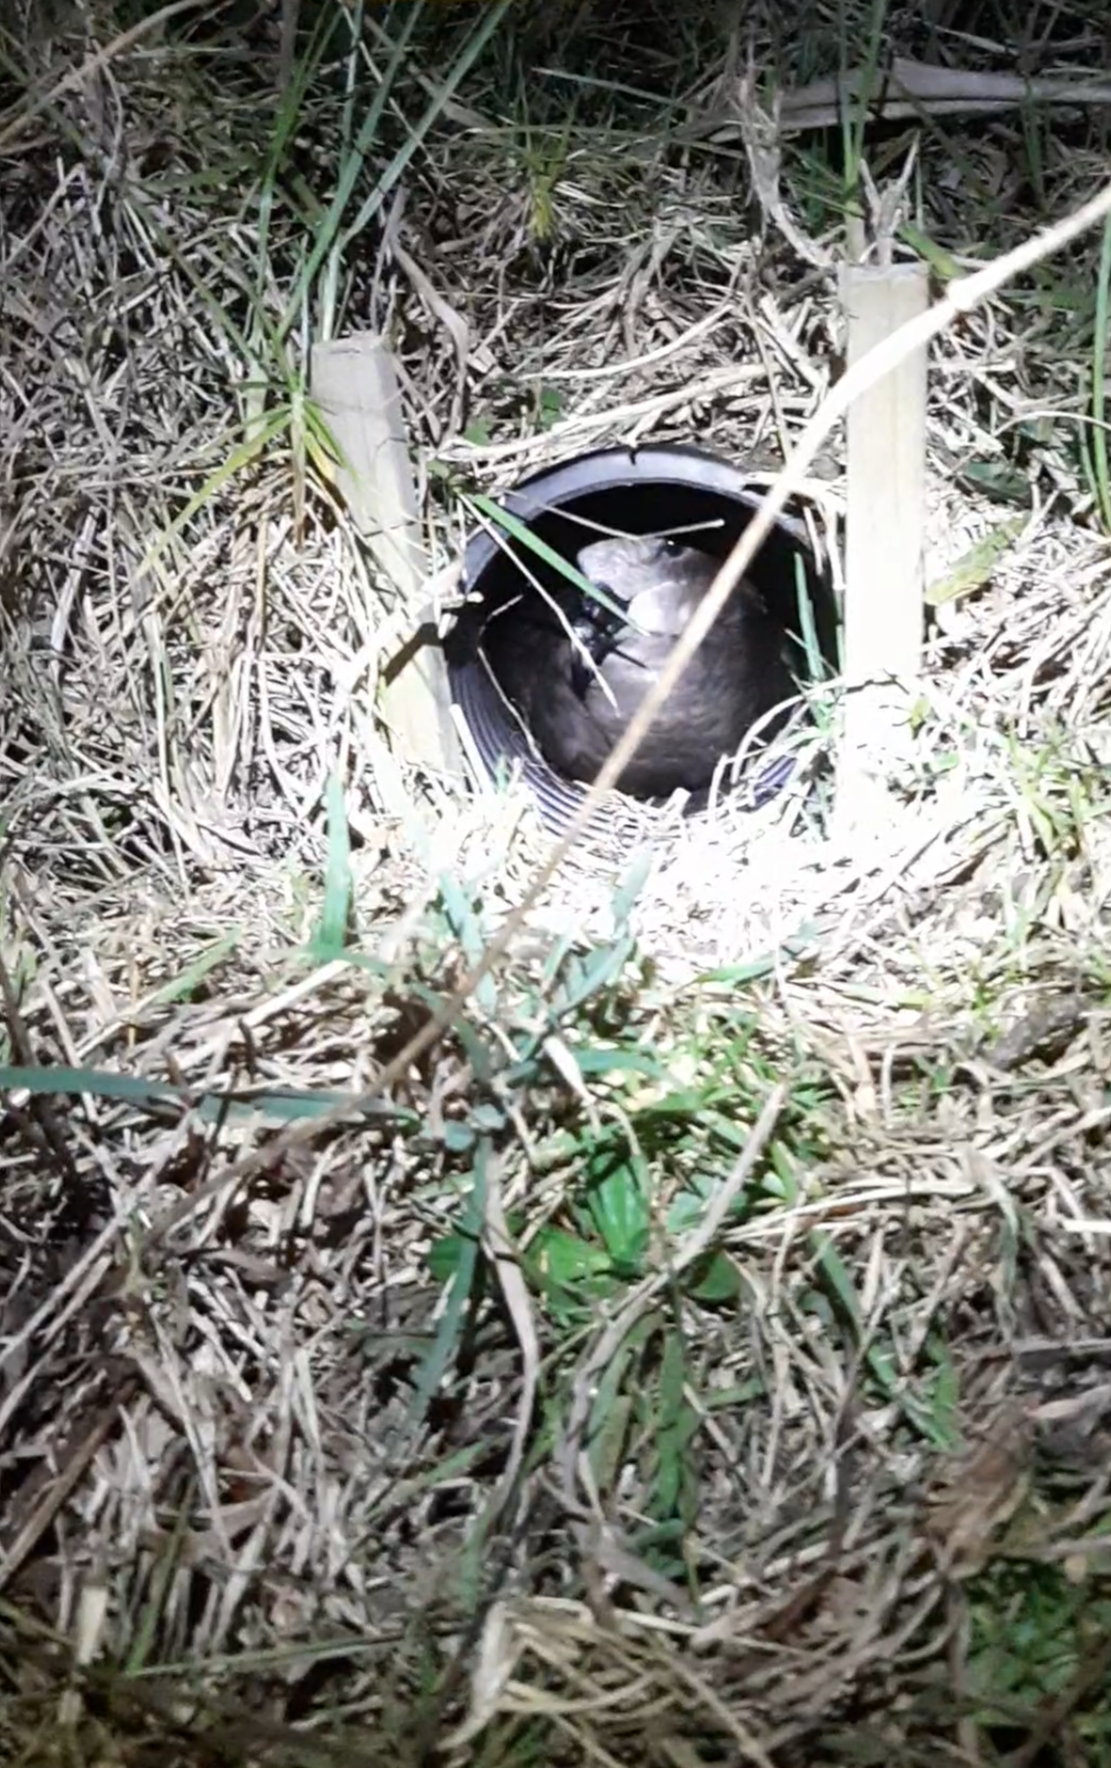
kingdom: Animalia
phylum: Chordata
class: Aves
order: Procellariiformes
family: Procellariidae
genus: Pterodroma
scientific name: Pterodroma macroptera
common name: Great-winged petrel
